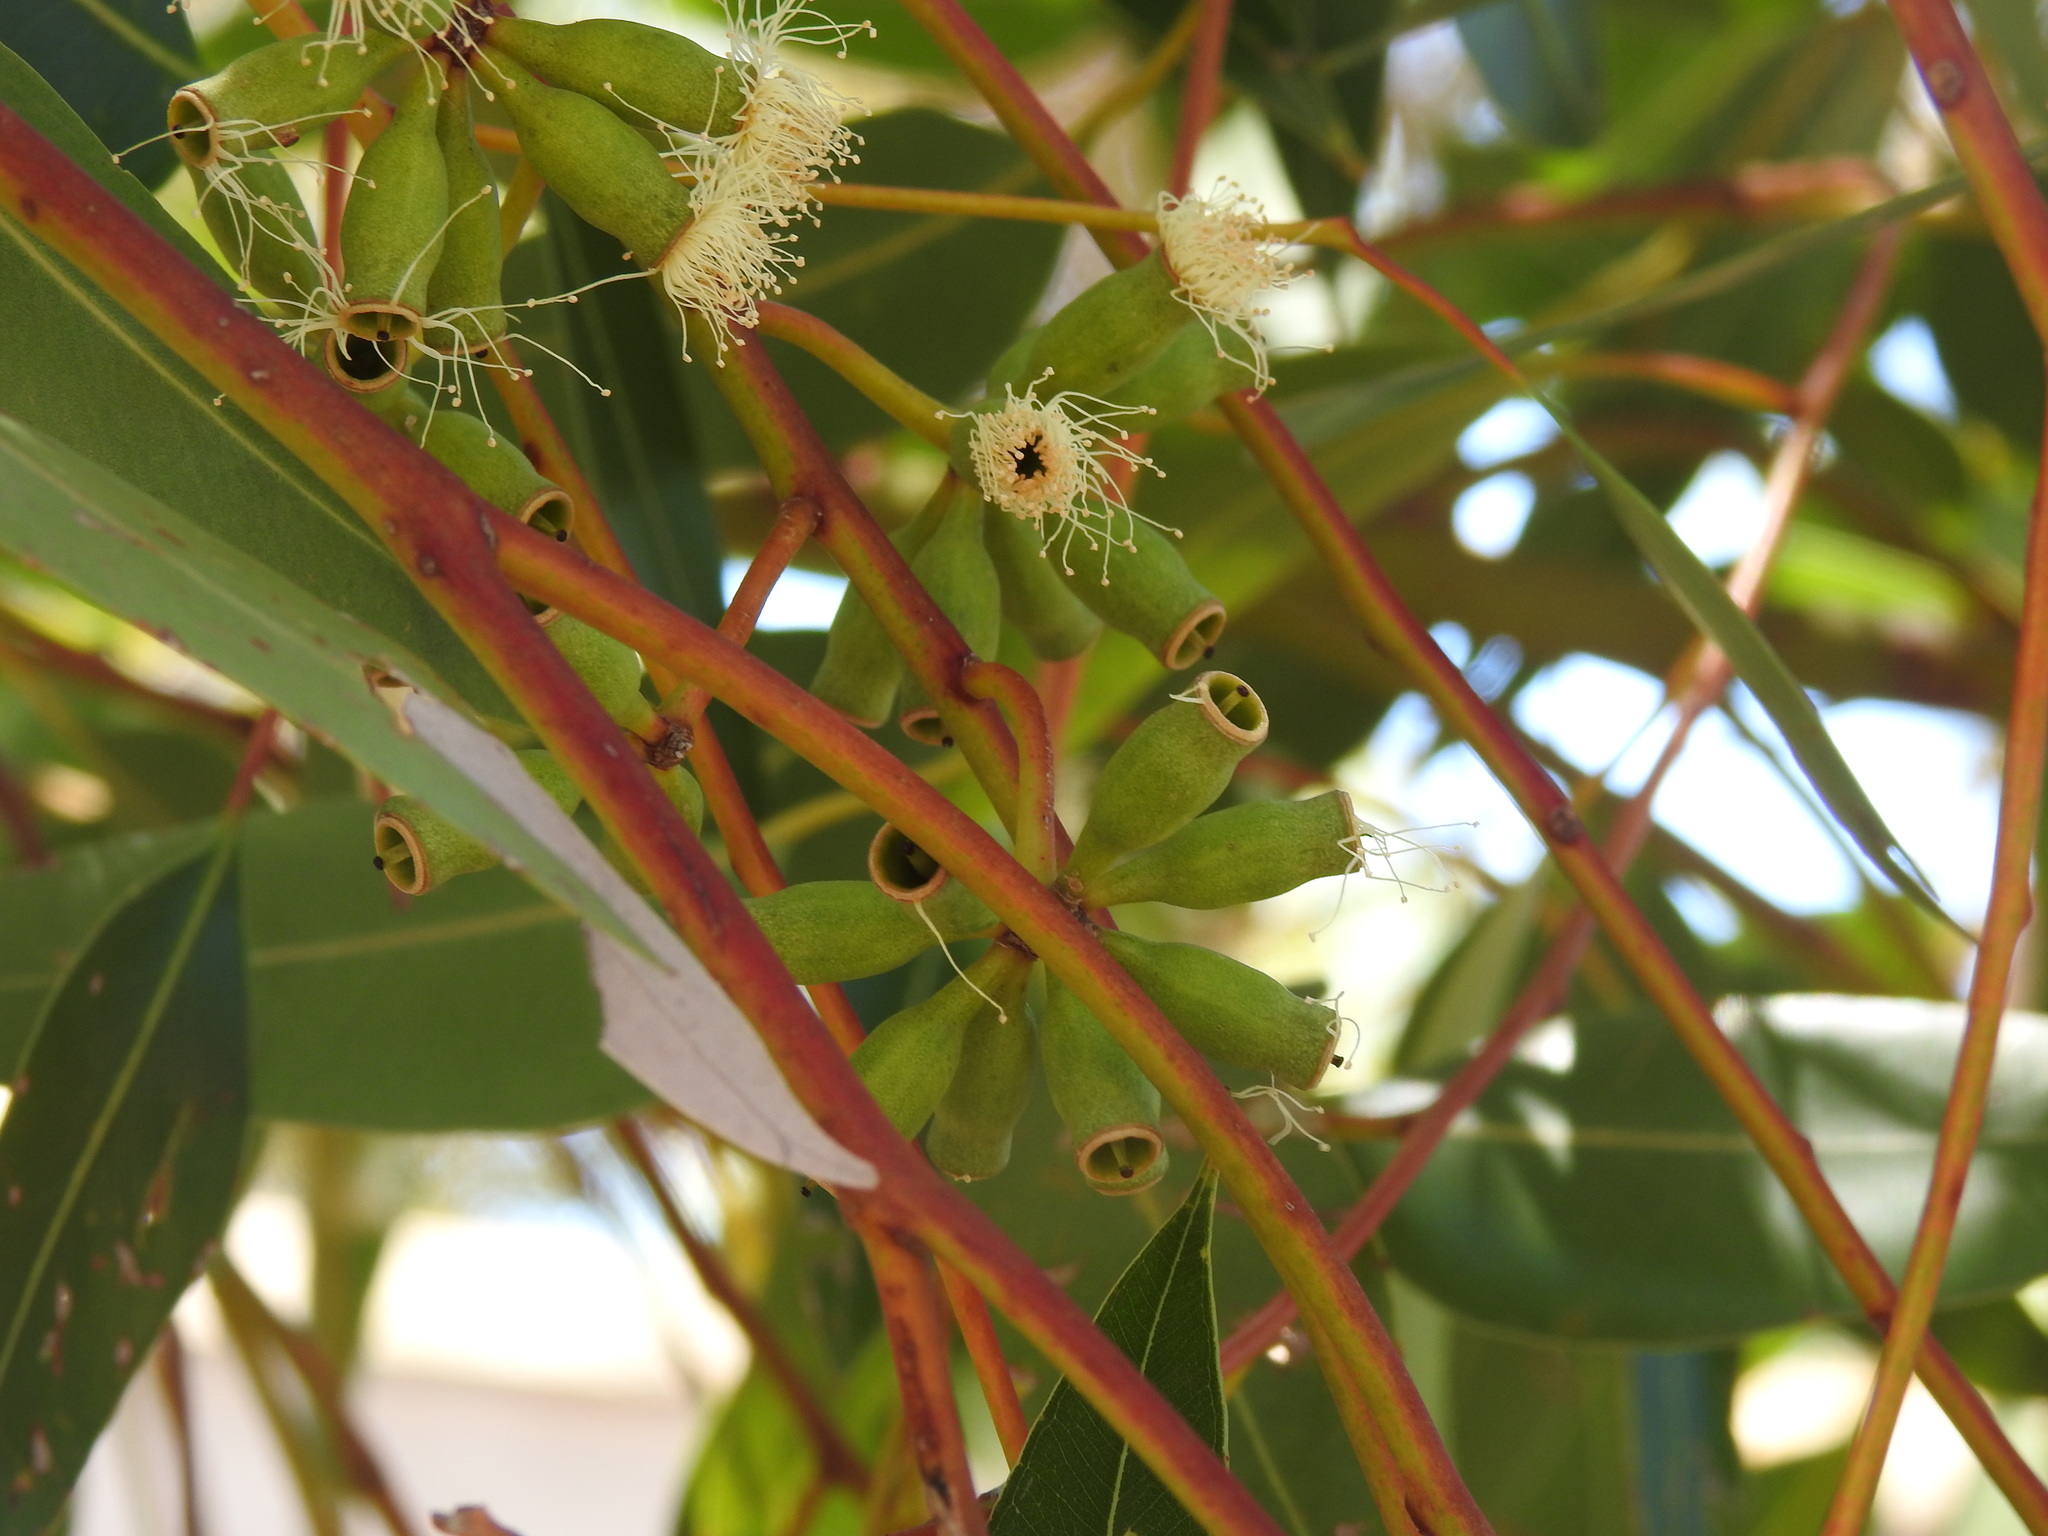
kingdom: Plantae
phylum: Tracheophyta
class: Magnoliopsida
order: Myrtales
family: Myrtaceae
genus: Eucalyptus
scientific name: Eucalyptus cladocalyx
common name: Sugargum
